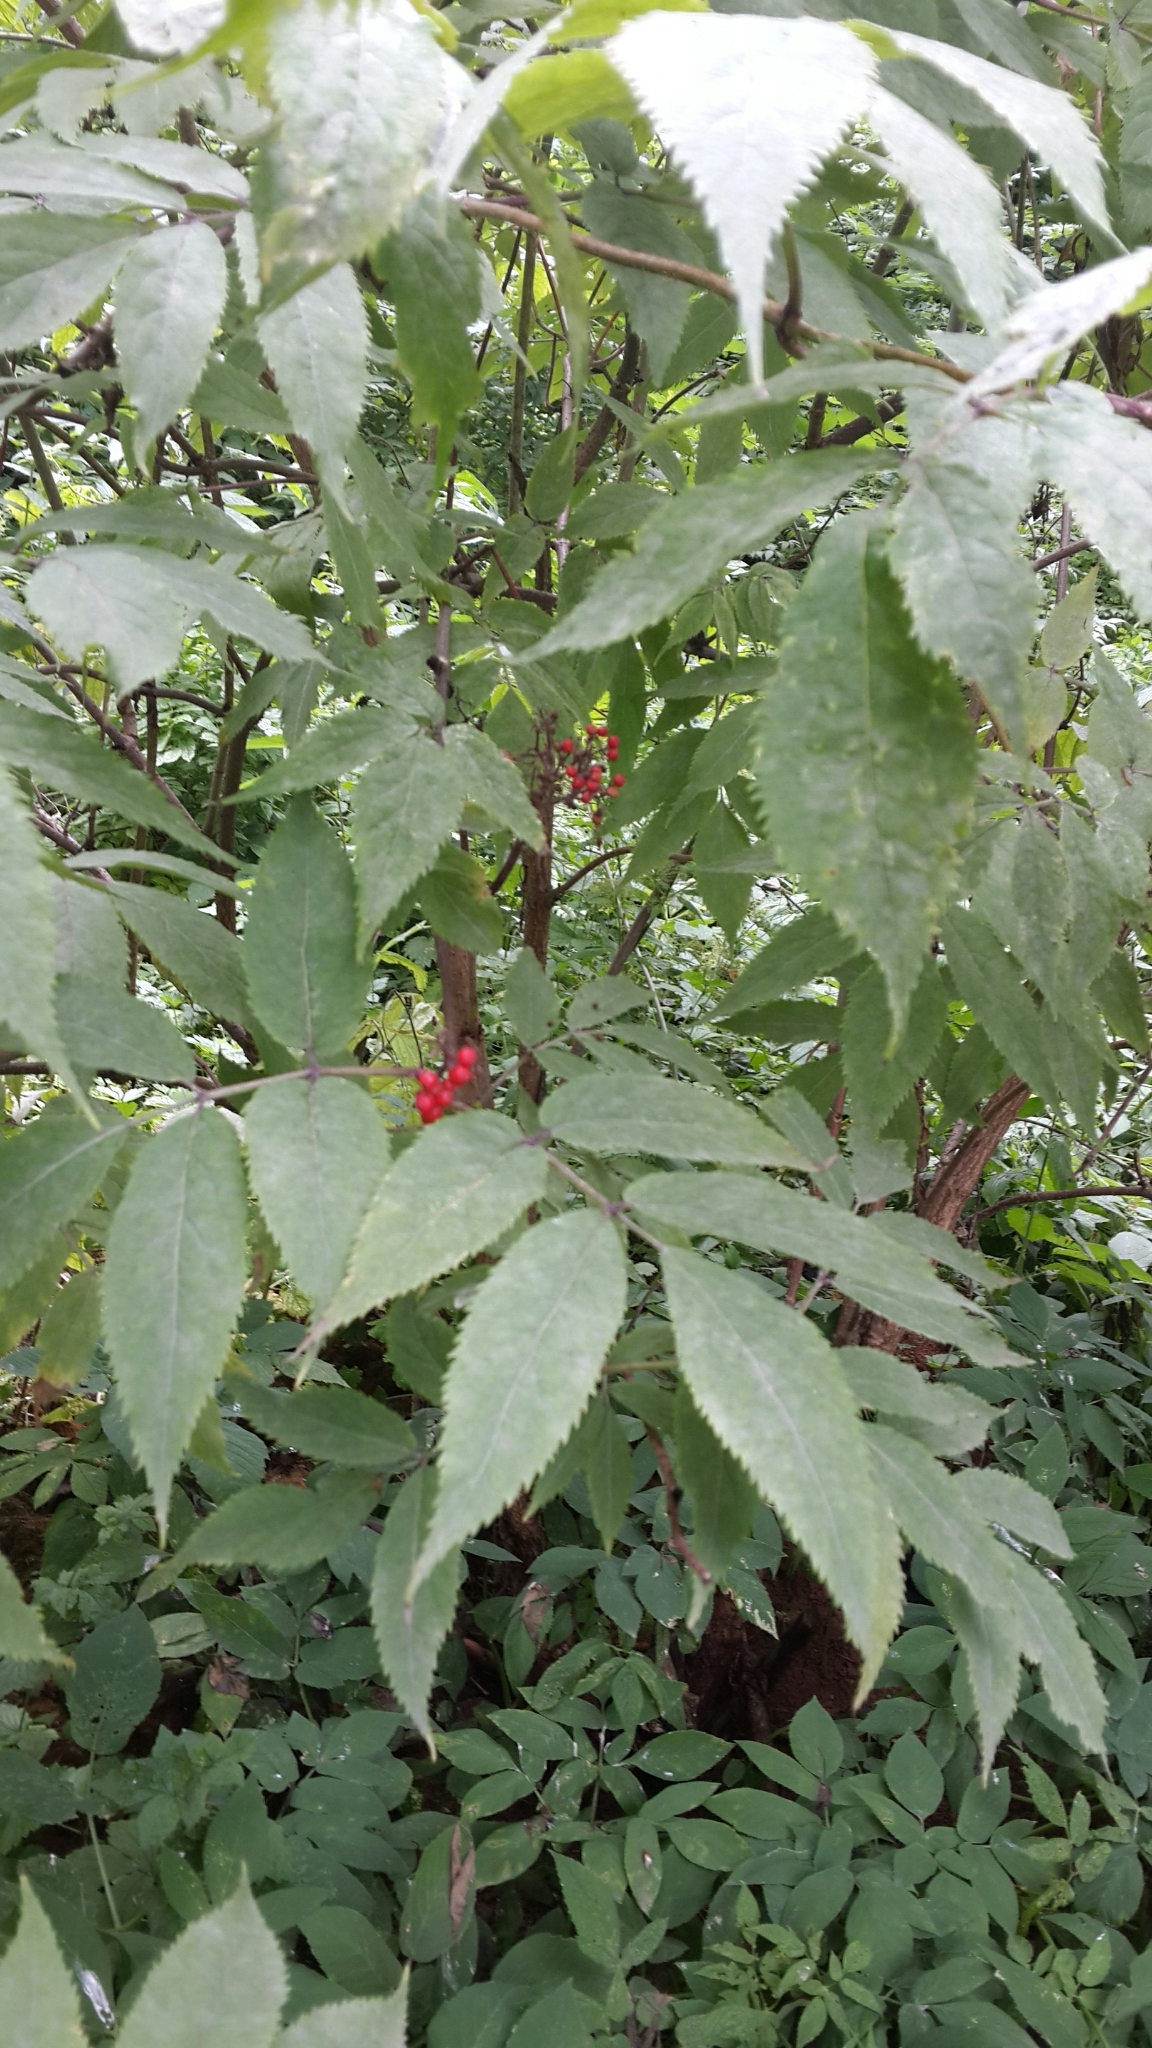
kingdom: Plantae
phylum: Tracheophyta
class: Magnoliopsida
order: Dipsacales
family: Viburnaceae
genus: Sambucus
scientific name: Sambucus racemosa
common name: Red-berried elder
